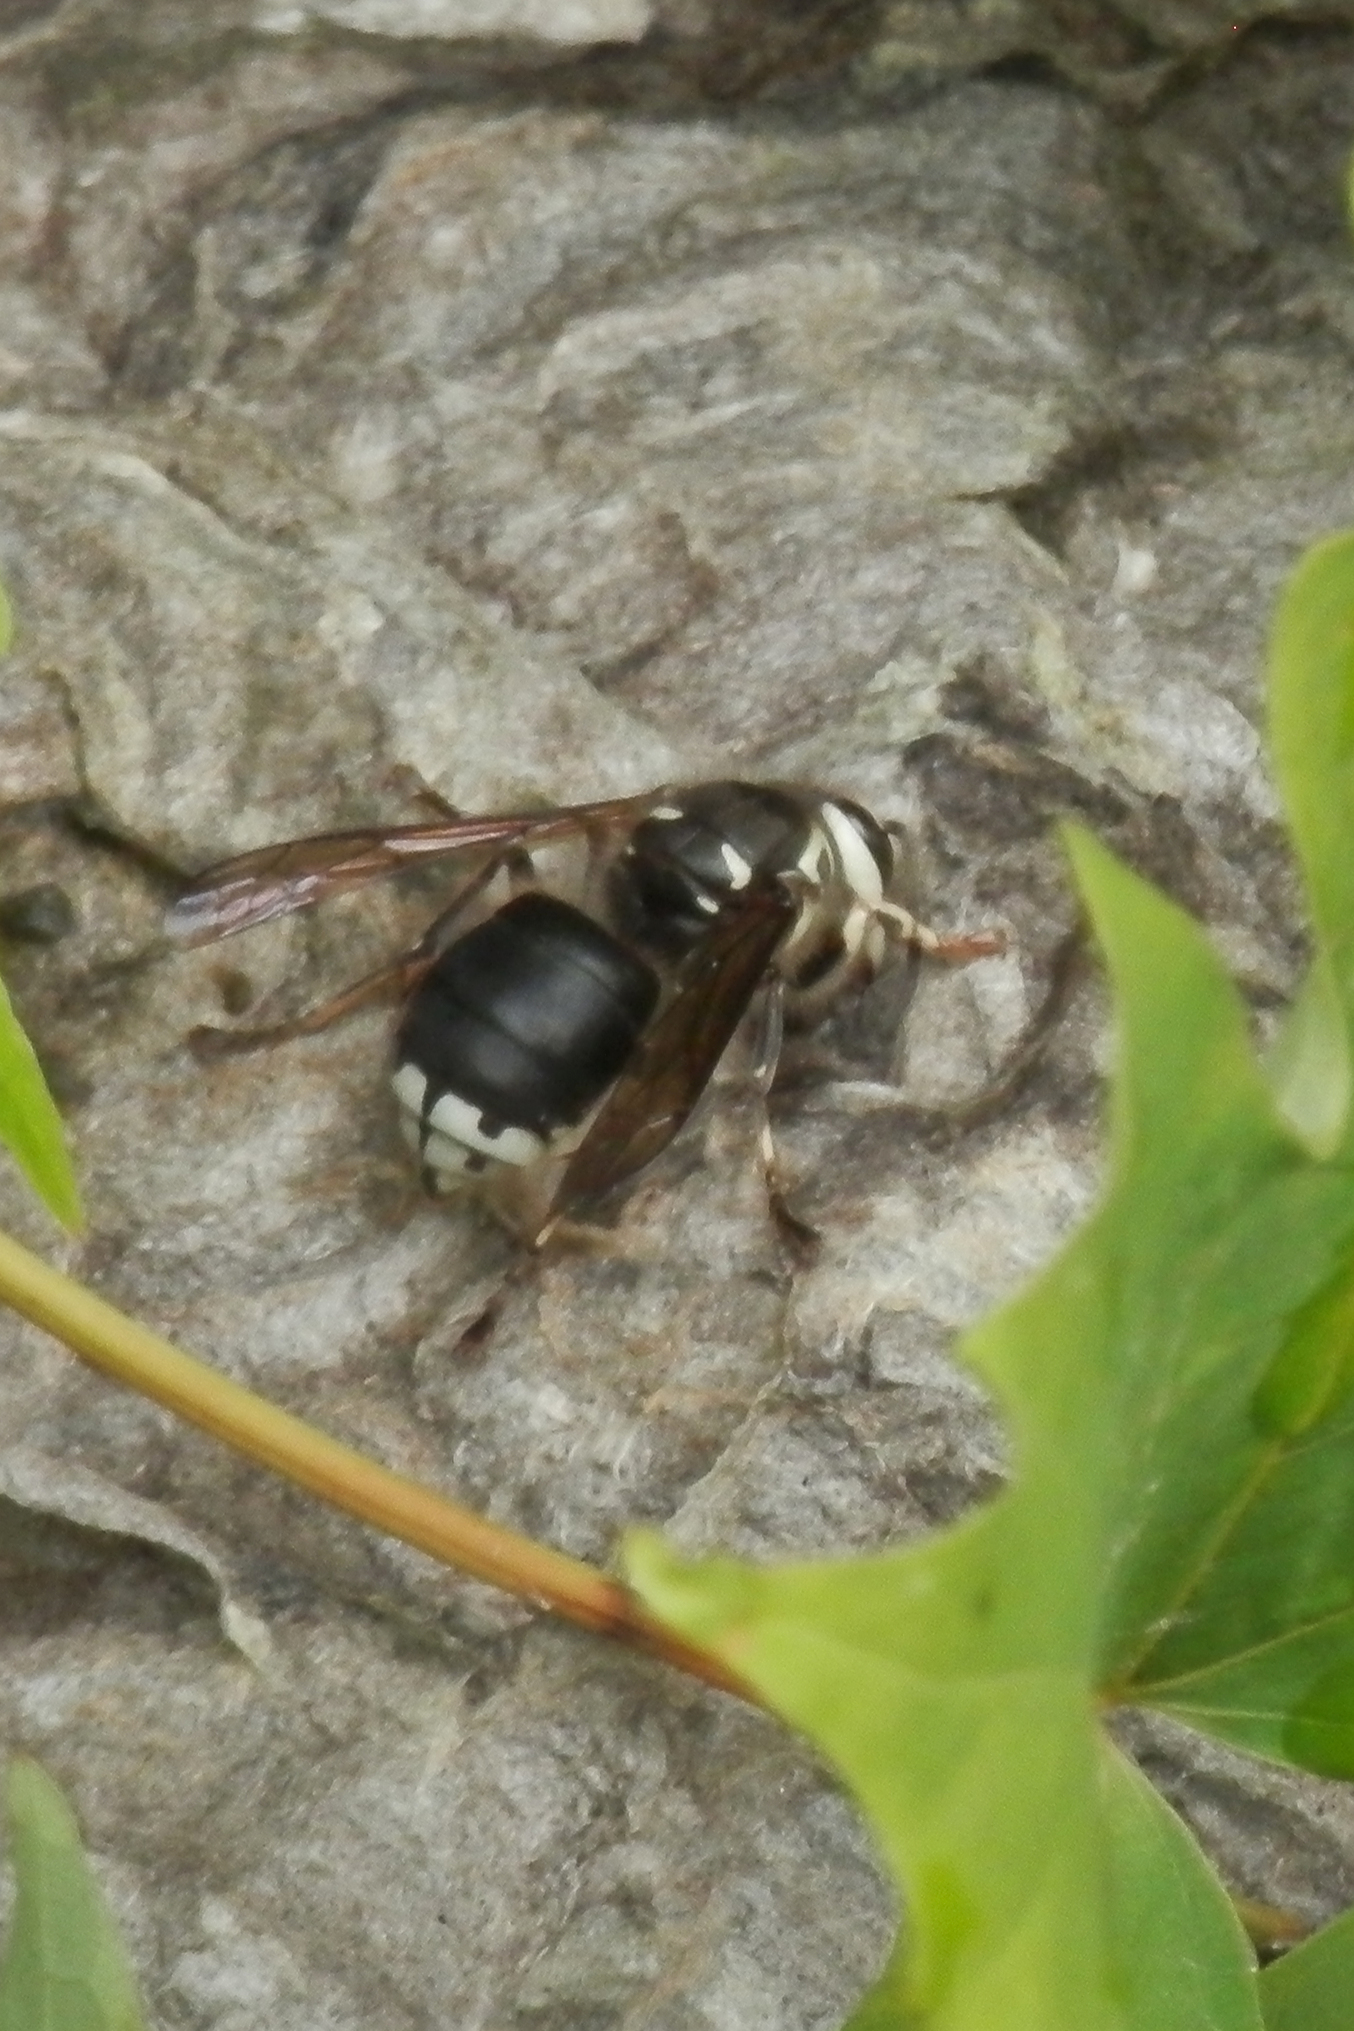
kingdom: Animalia
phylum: Arthropoda
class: Insecta
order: Hymenoptera
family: Vespidae
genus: Dolichovespula
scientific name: Dolichovespula maculata
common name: Bald-faced hornet
